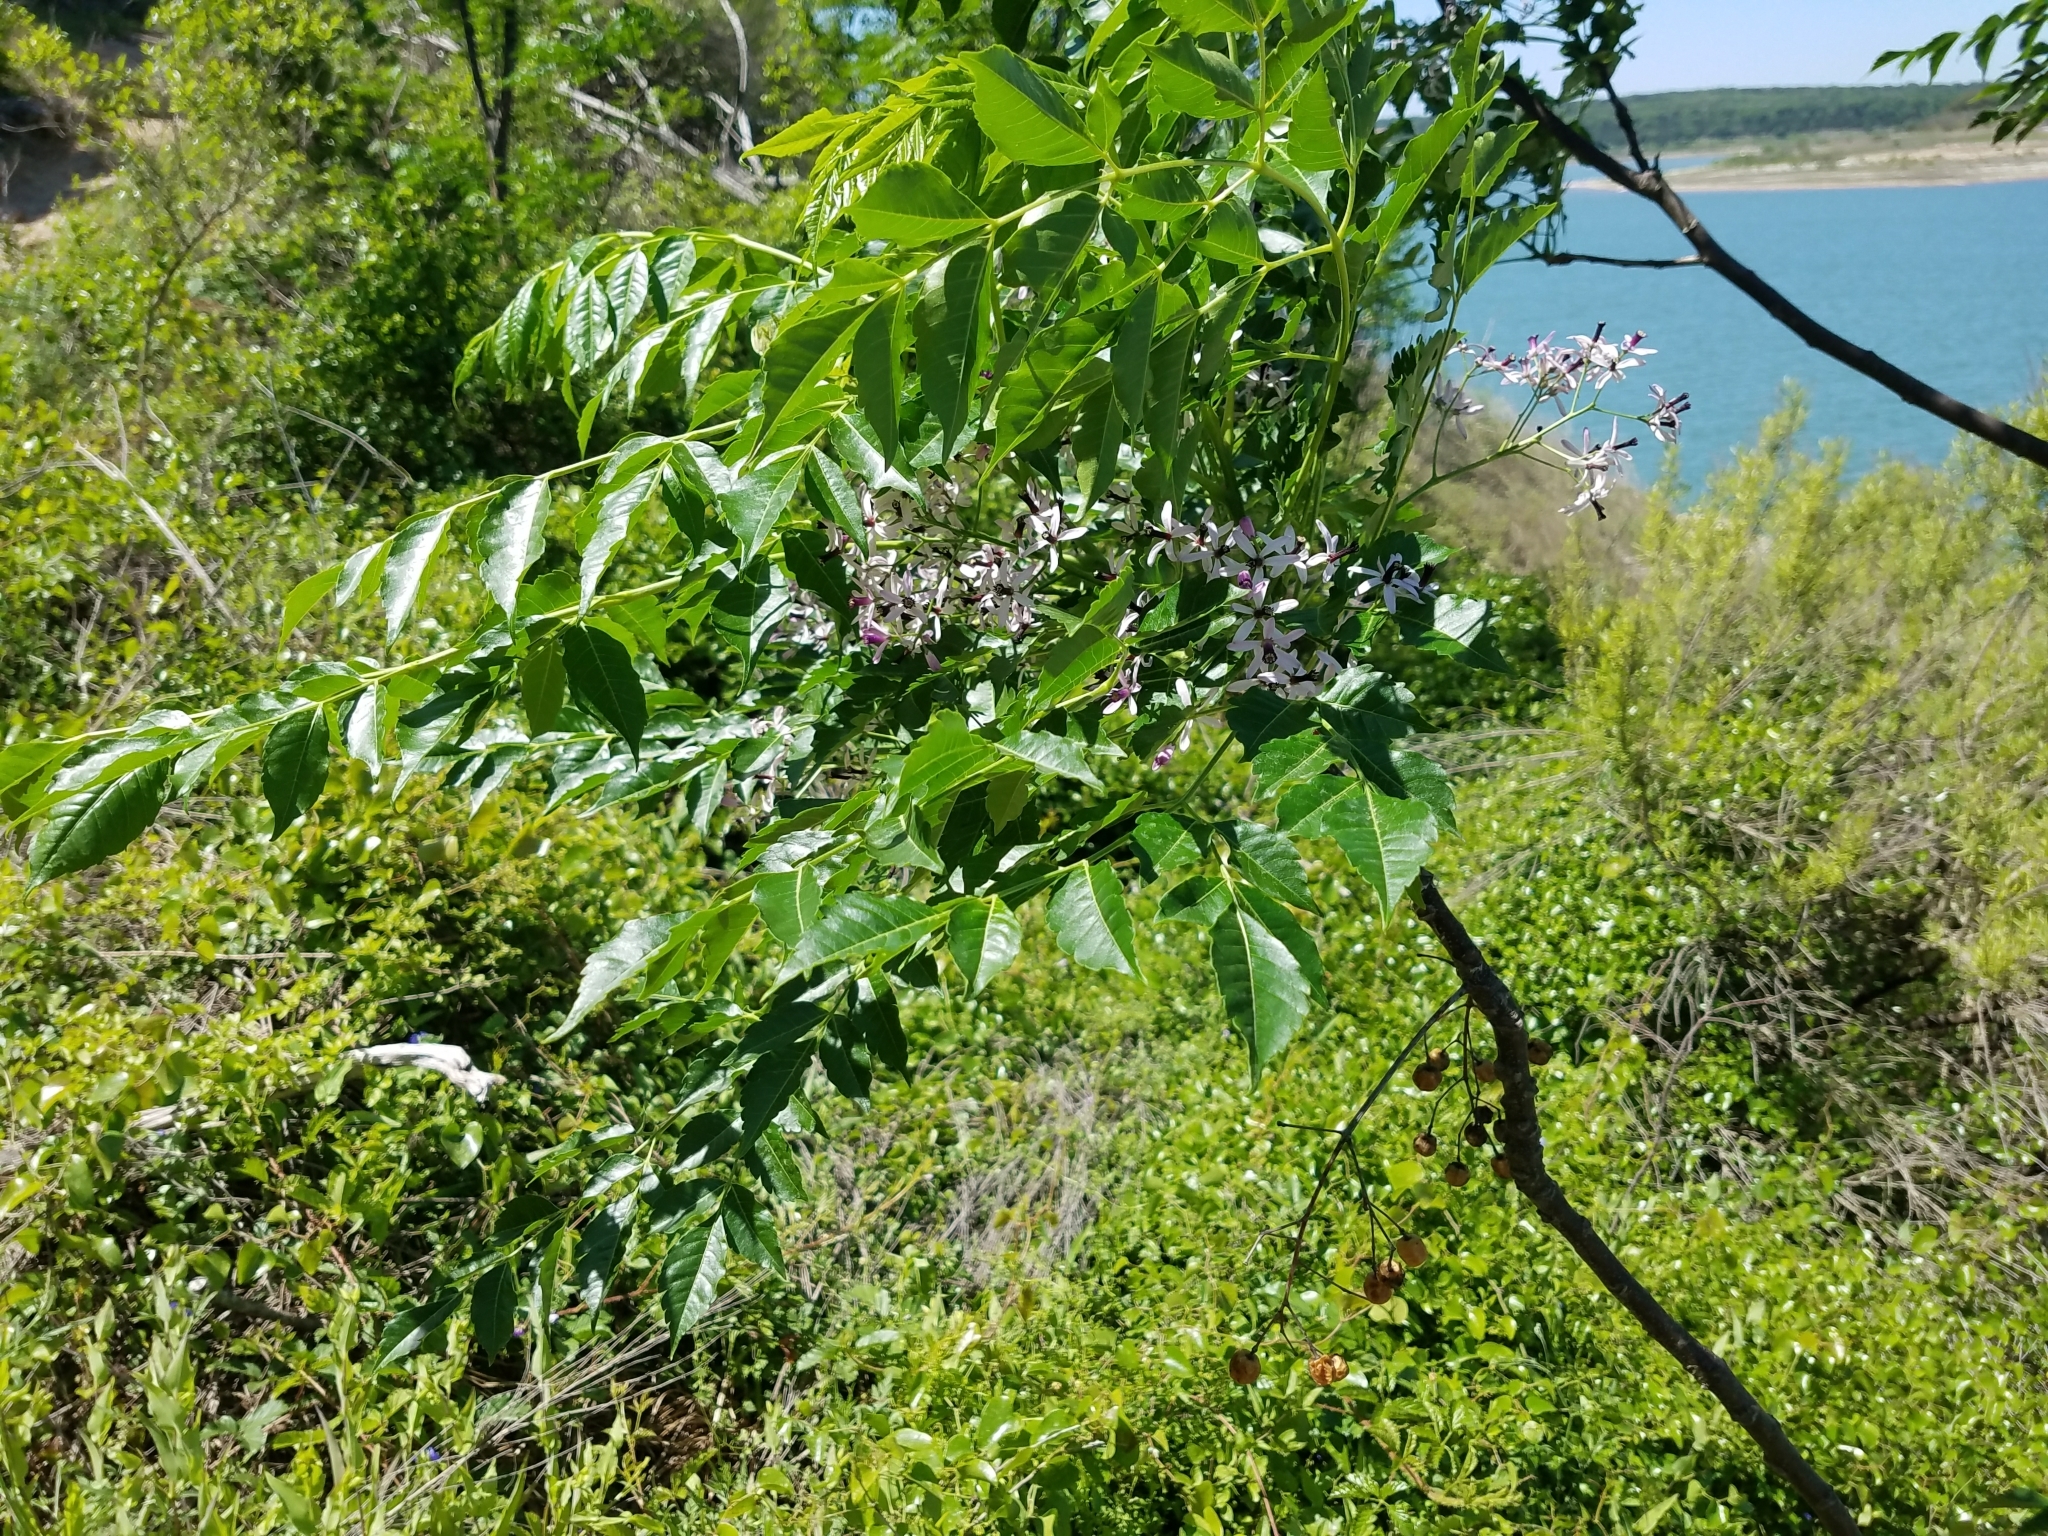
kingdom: Plantae
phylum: Tracheophyta
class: Magnoliopsida
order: Sapindales
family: Meliaceae
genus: Melia
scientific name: Melia azedarach
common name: Chinaberrytree
